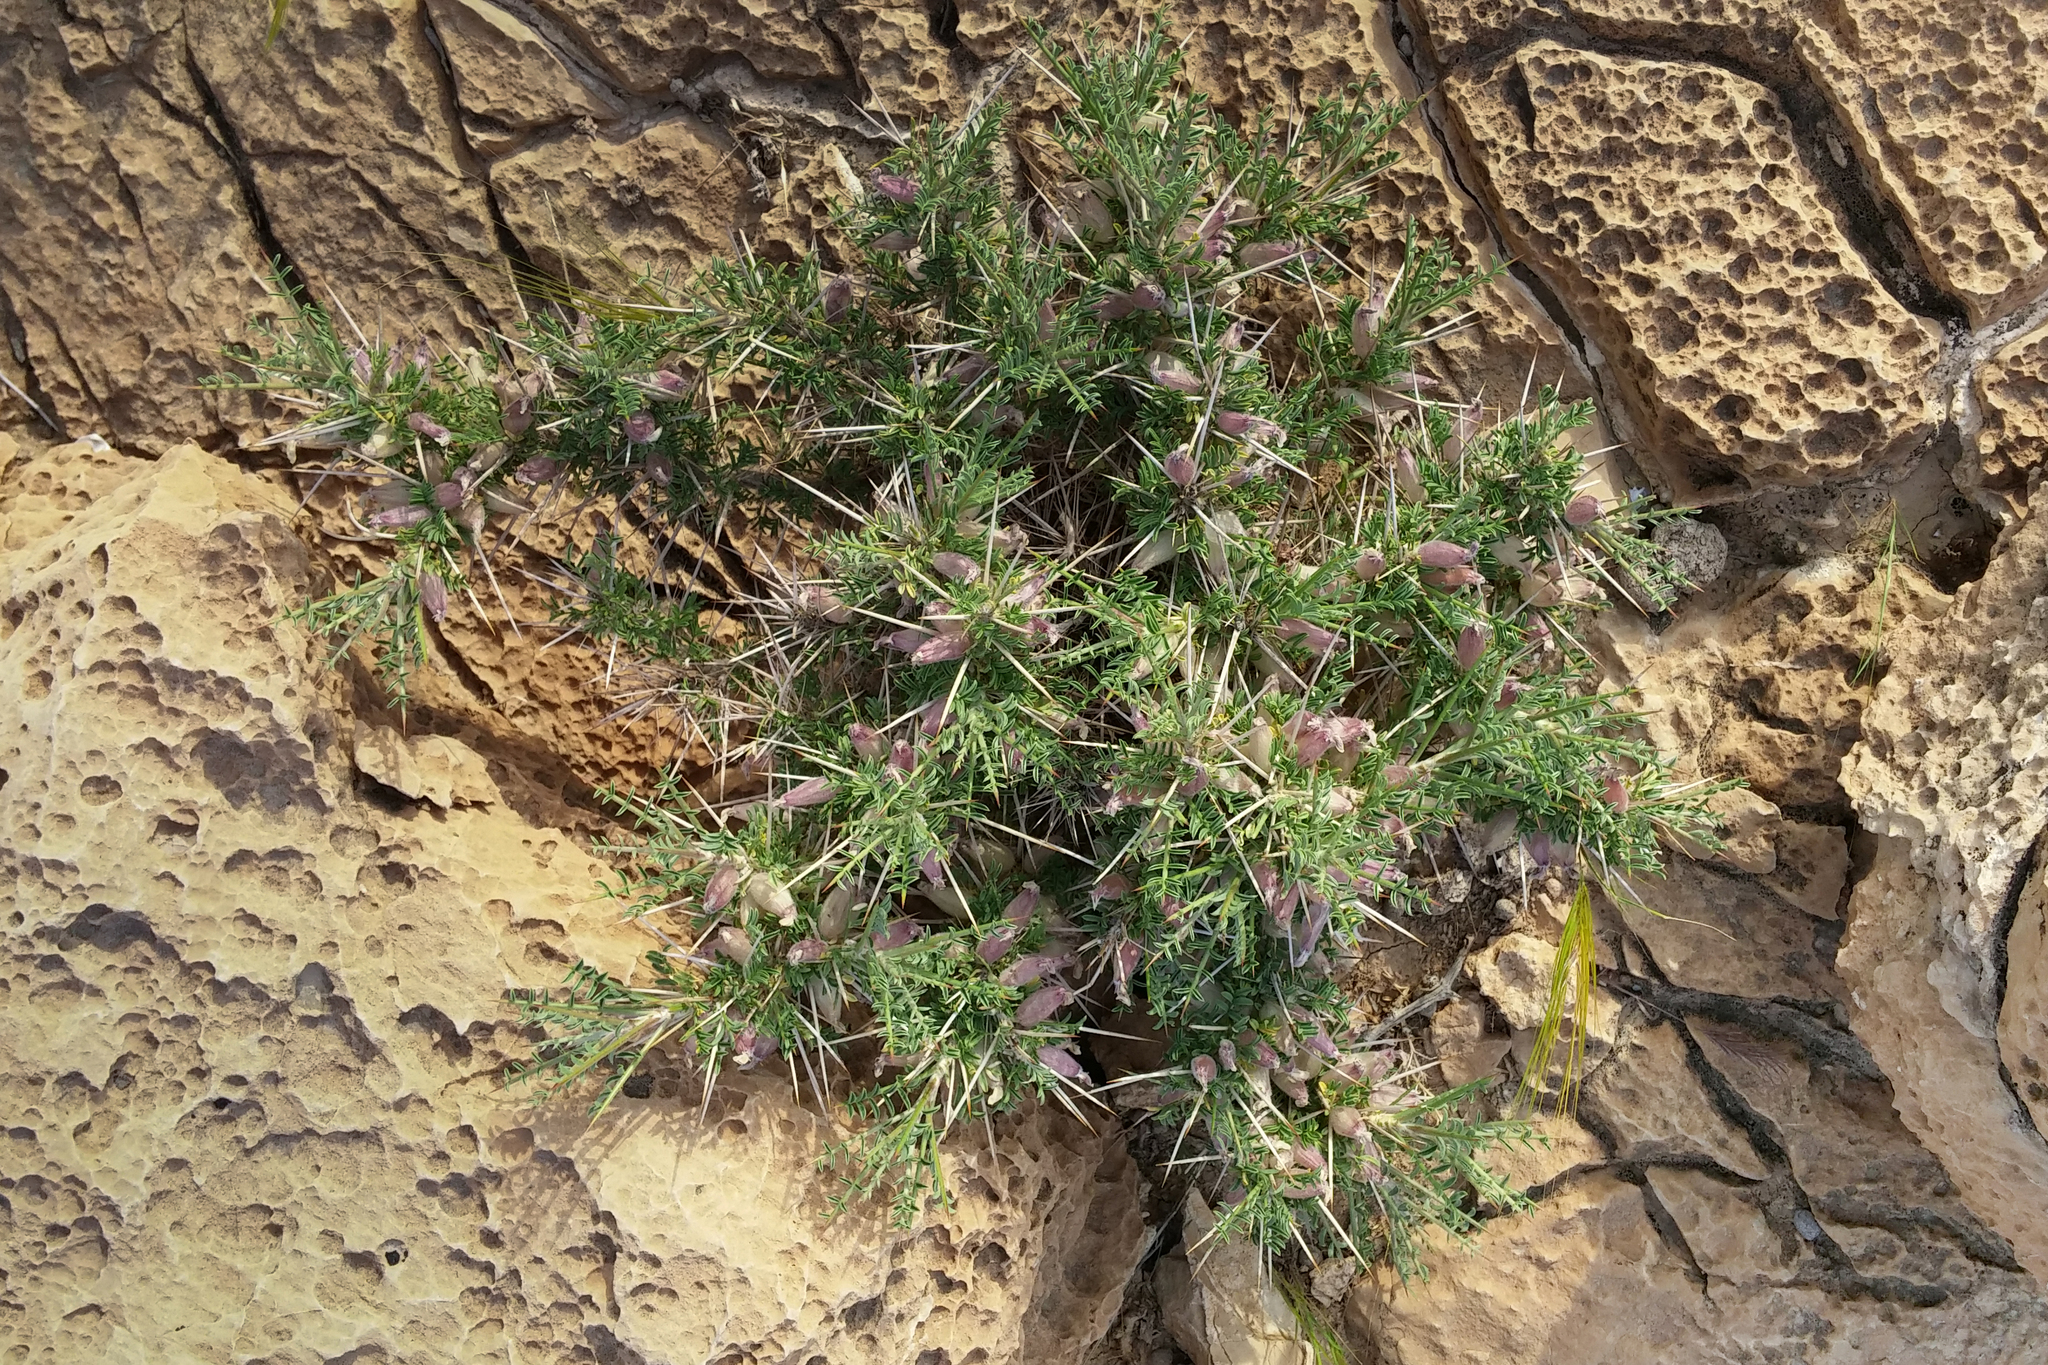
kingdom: Plantae
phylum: Tracheophyta
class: Magnoliopsida
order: Fabales
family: Fabaceae
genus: Astragalus
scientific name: Astragalus spinosus
